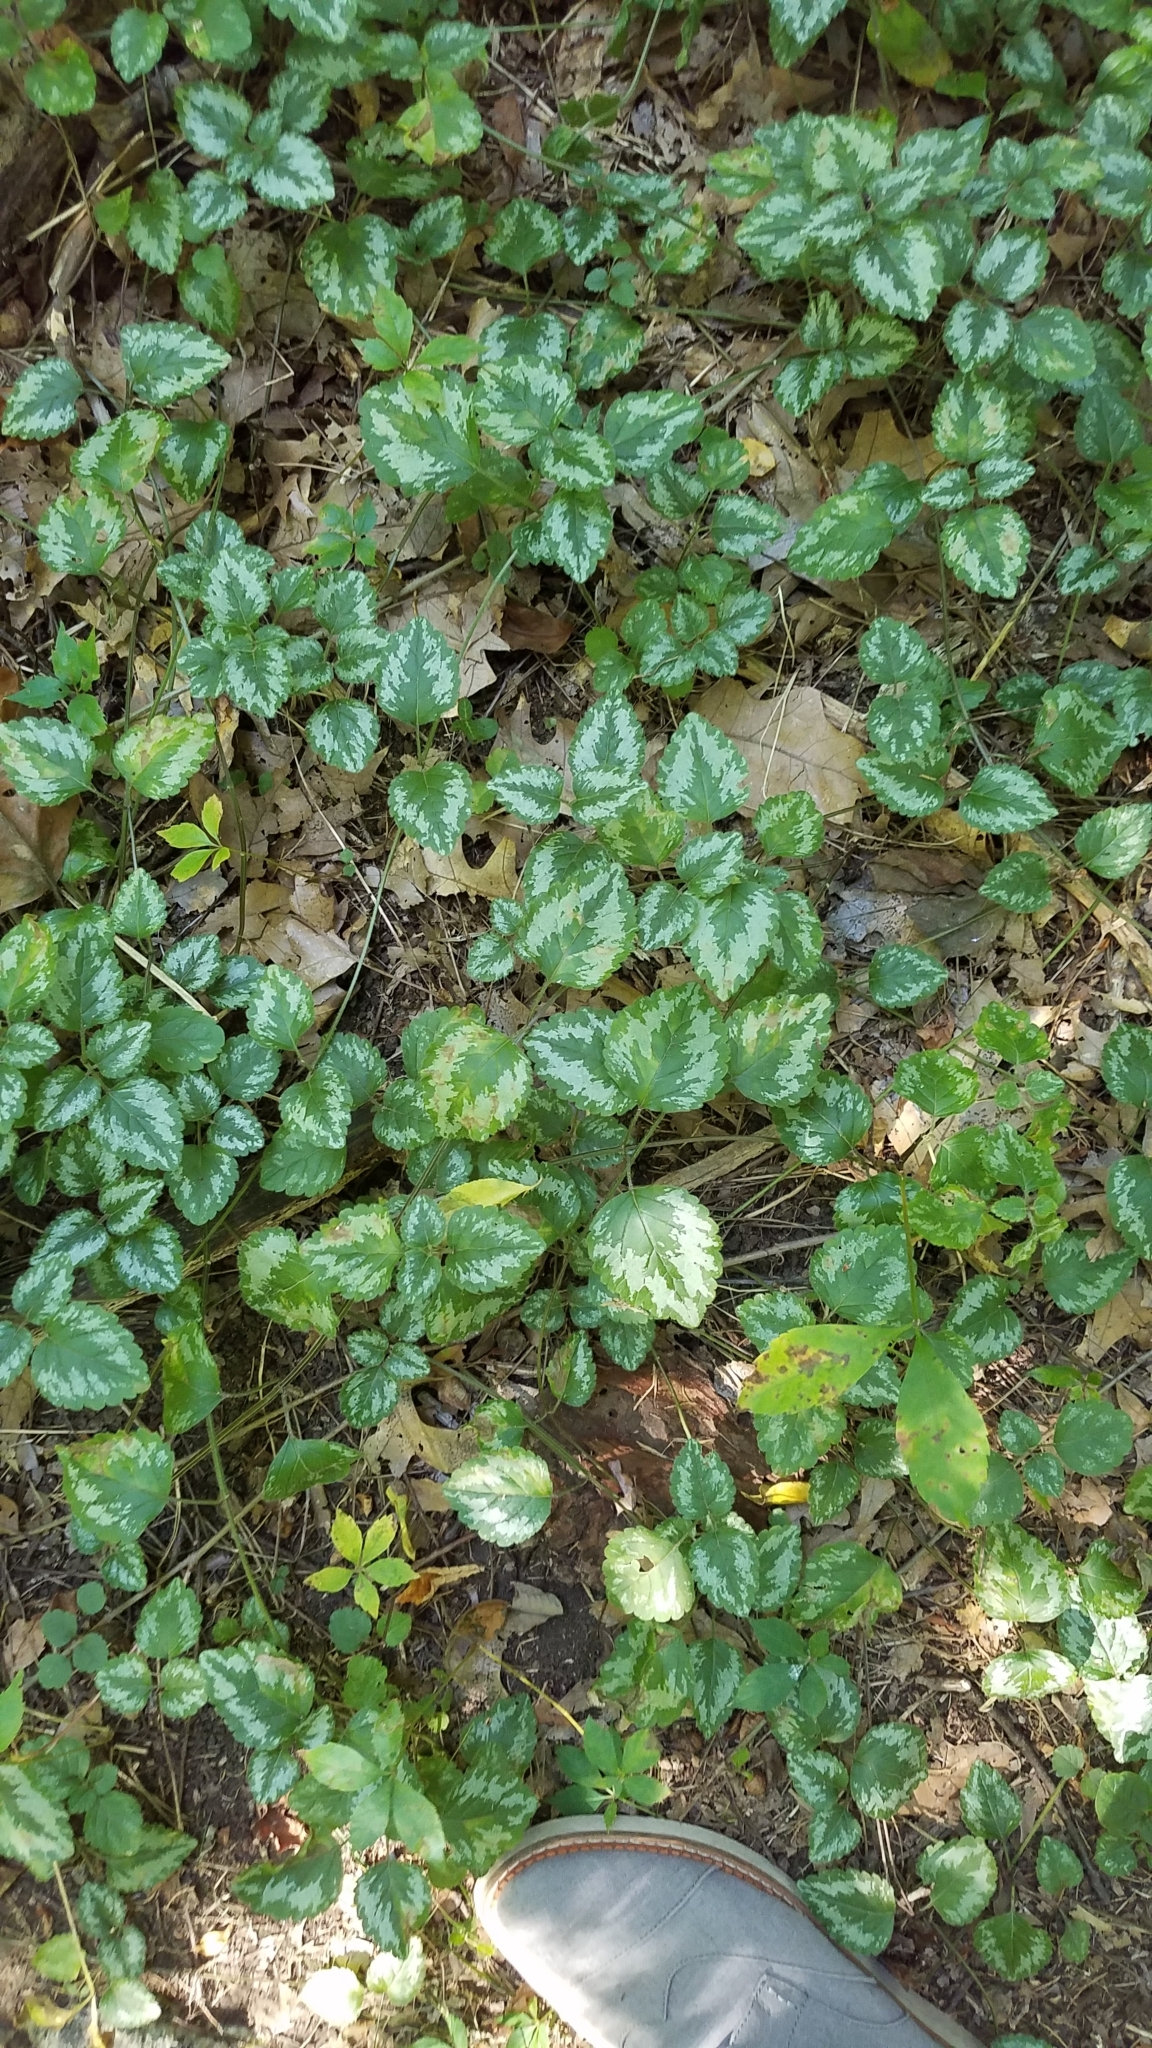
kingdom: Plantae
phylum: Tracheophyta
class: Magnoliopsida
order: Lamiales
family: Lamiaceae
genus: Lamium
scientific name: Lamium galeobdolon
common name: Yellow archangel
